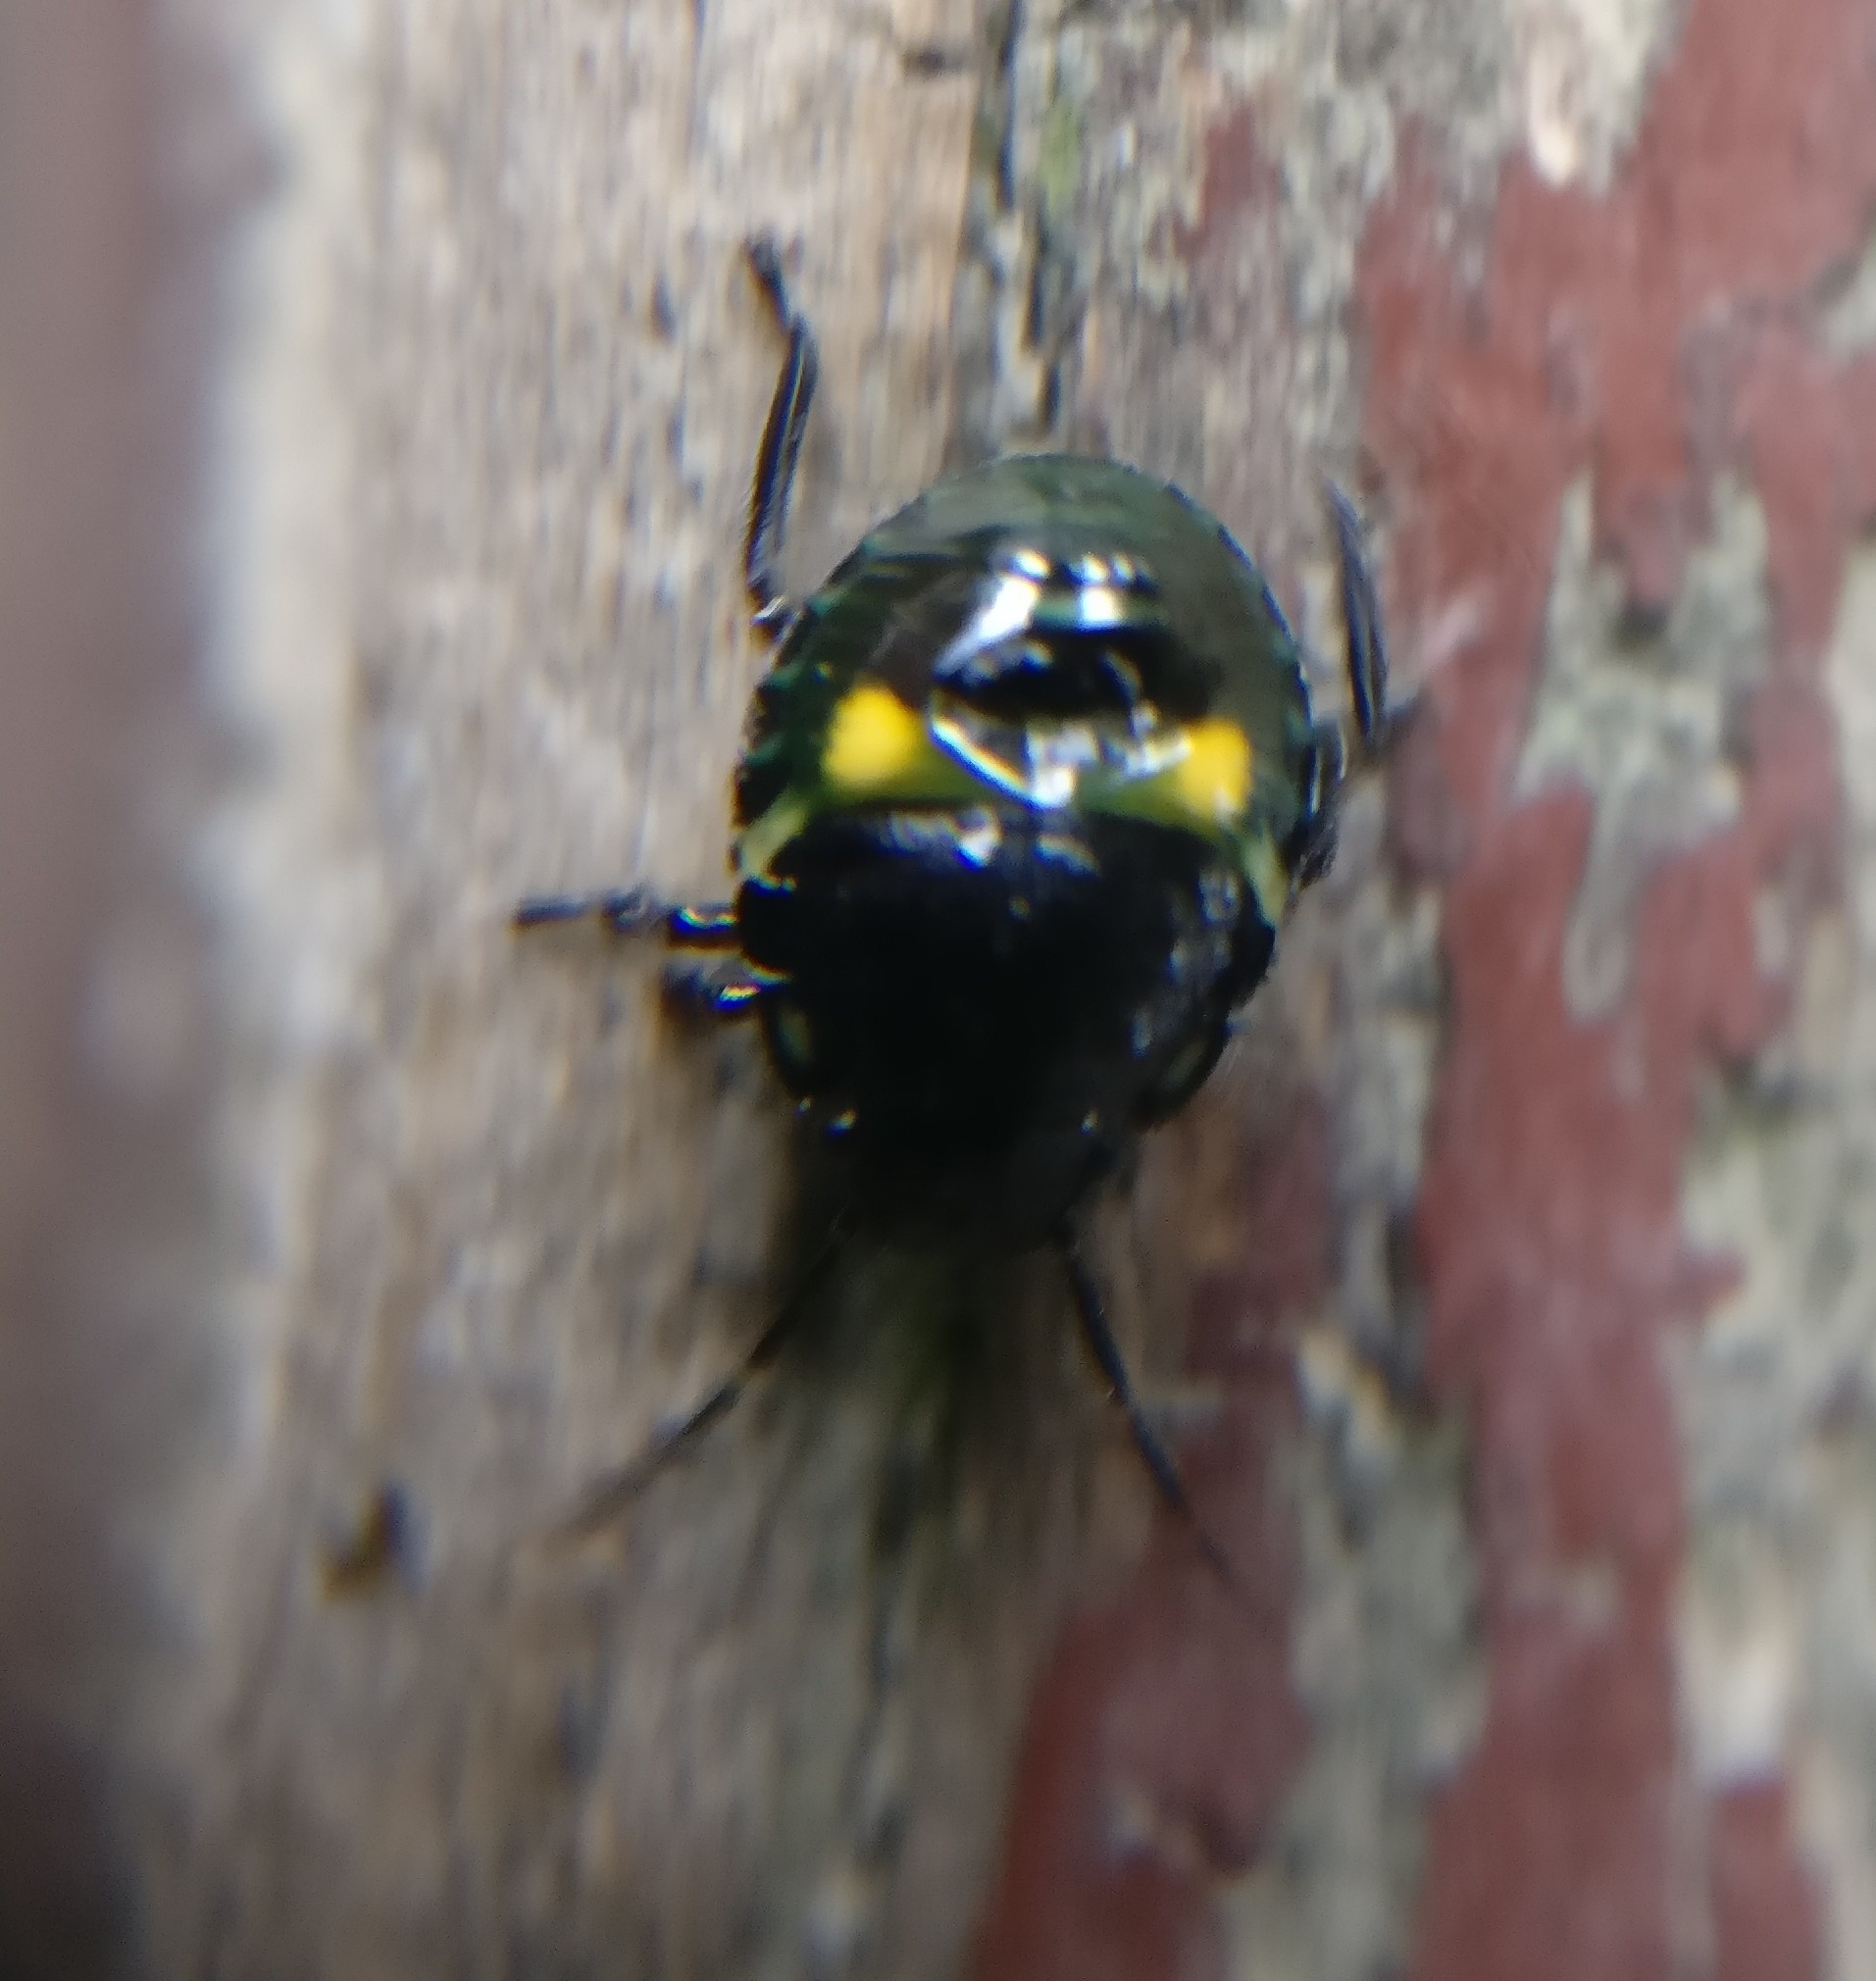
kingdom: Animalia
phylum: Arthropoda
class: Insecta
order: Hemiptera
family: Pentatomidae
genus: Glaucias
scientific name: Glaucias amyota
